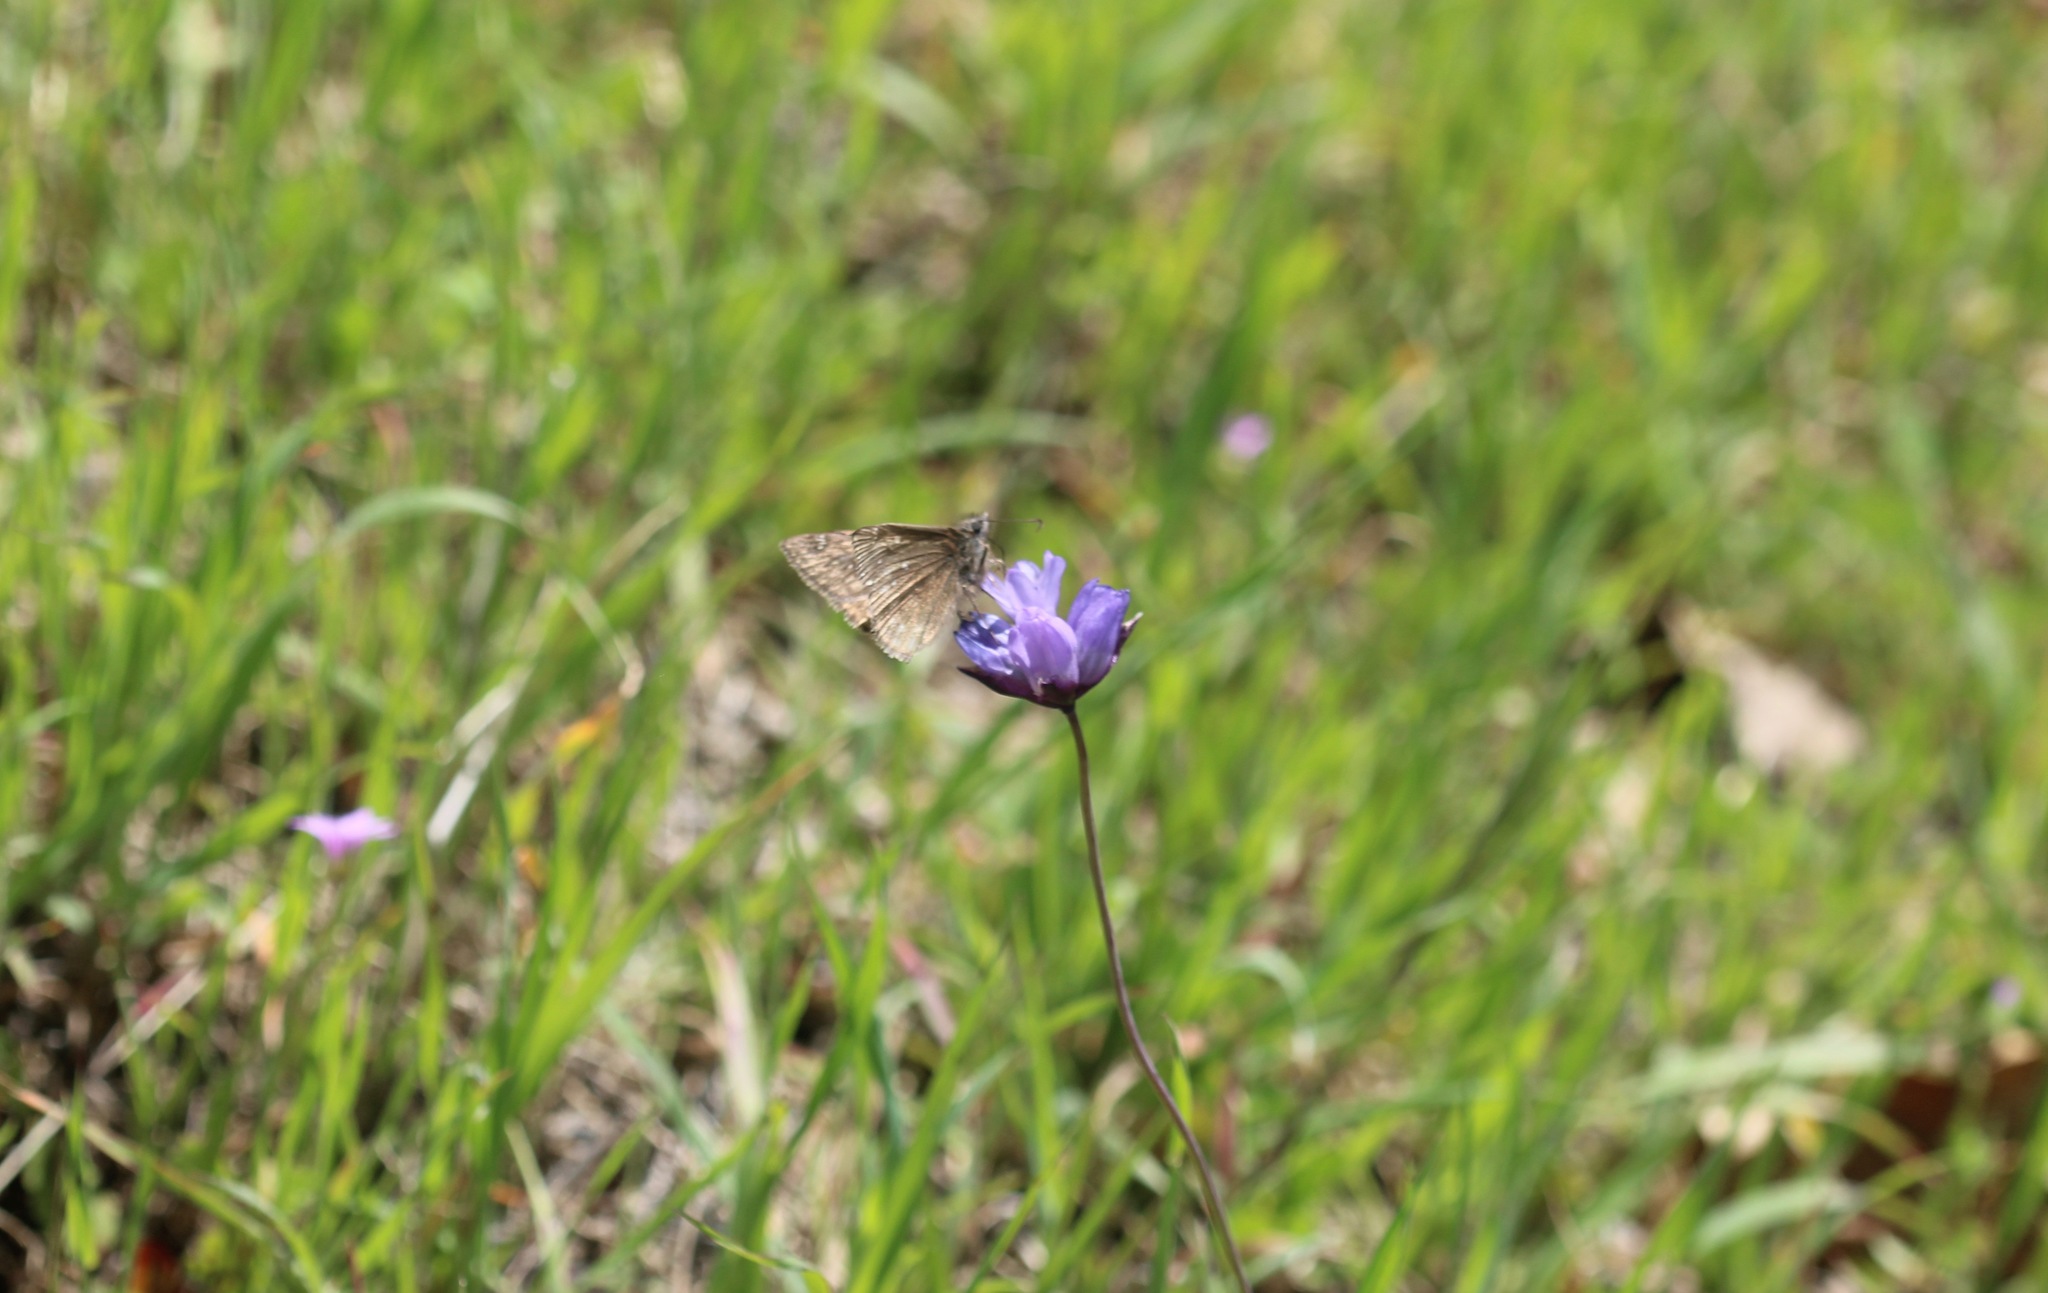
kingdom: Animalia
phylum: Arthropoda
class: Insecta
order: Lepidoptera
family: Hesperiidae
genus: Erynnis
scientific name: Erynnis propertius
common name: Propertius duskywing
